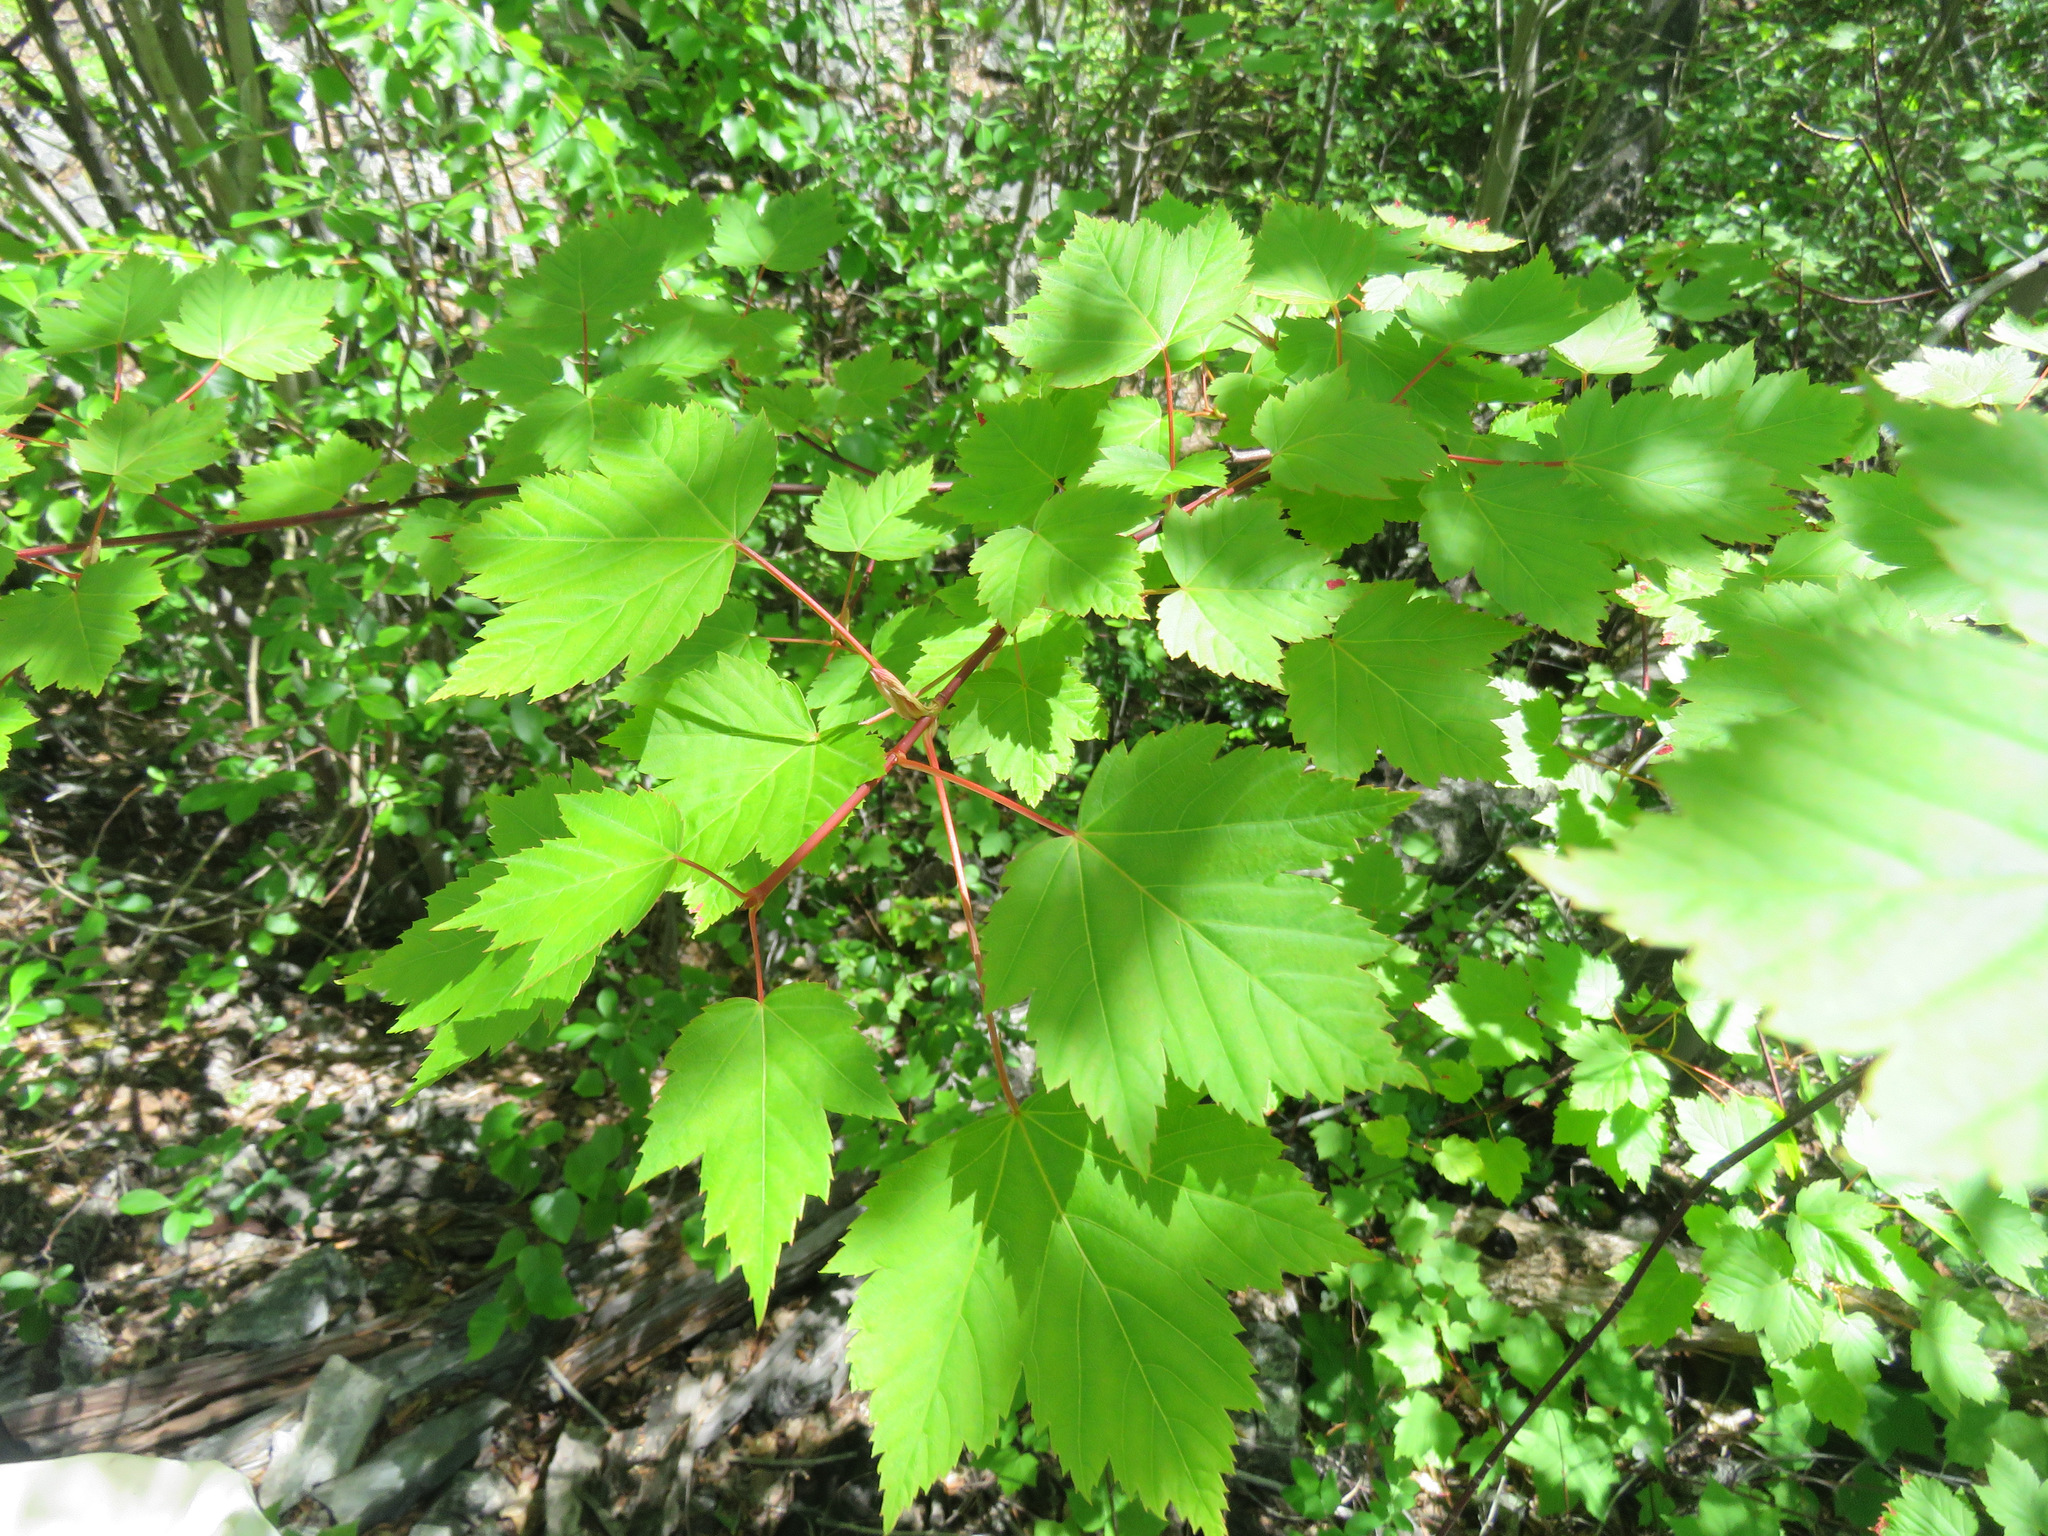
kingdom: Plantae
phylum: Tracheophyta
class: Magnoliopsida
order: Sapindales
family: Sapindaceae
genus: Acer
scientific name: Acer glabrum
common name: Rocky mountain maple
